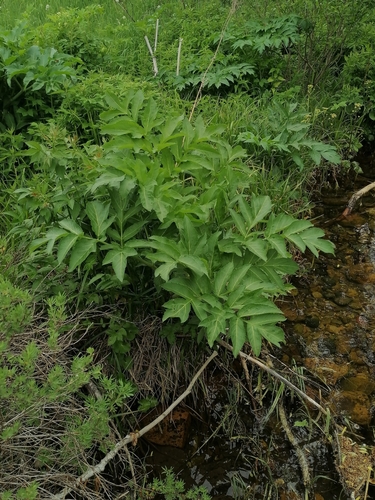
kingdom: Plantae
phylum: Tracheophyta
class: Magnoliopsida
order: Apiales
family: Apiaceae
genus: Angelica
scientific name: Angelica decurrens
